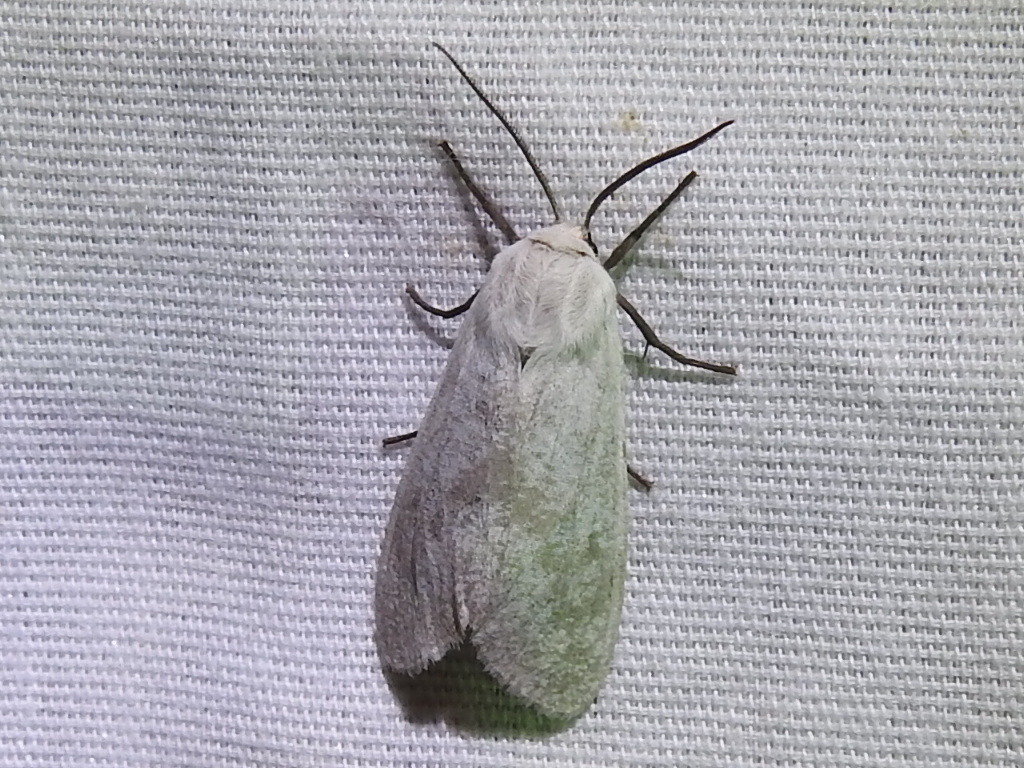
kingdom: Animalia
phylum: Arthropoda
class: Insecta
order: Lepidoptera
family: Erebidae
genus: Euchaetes
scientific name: Euchaetes bolteri
